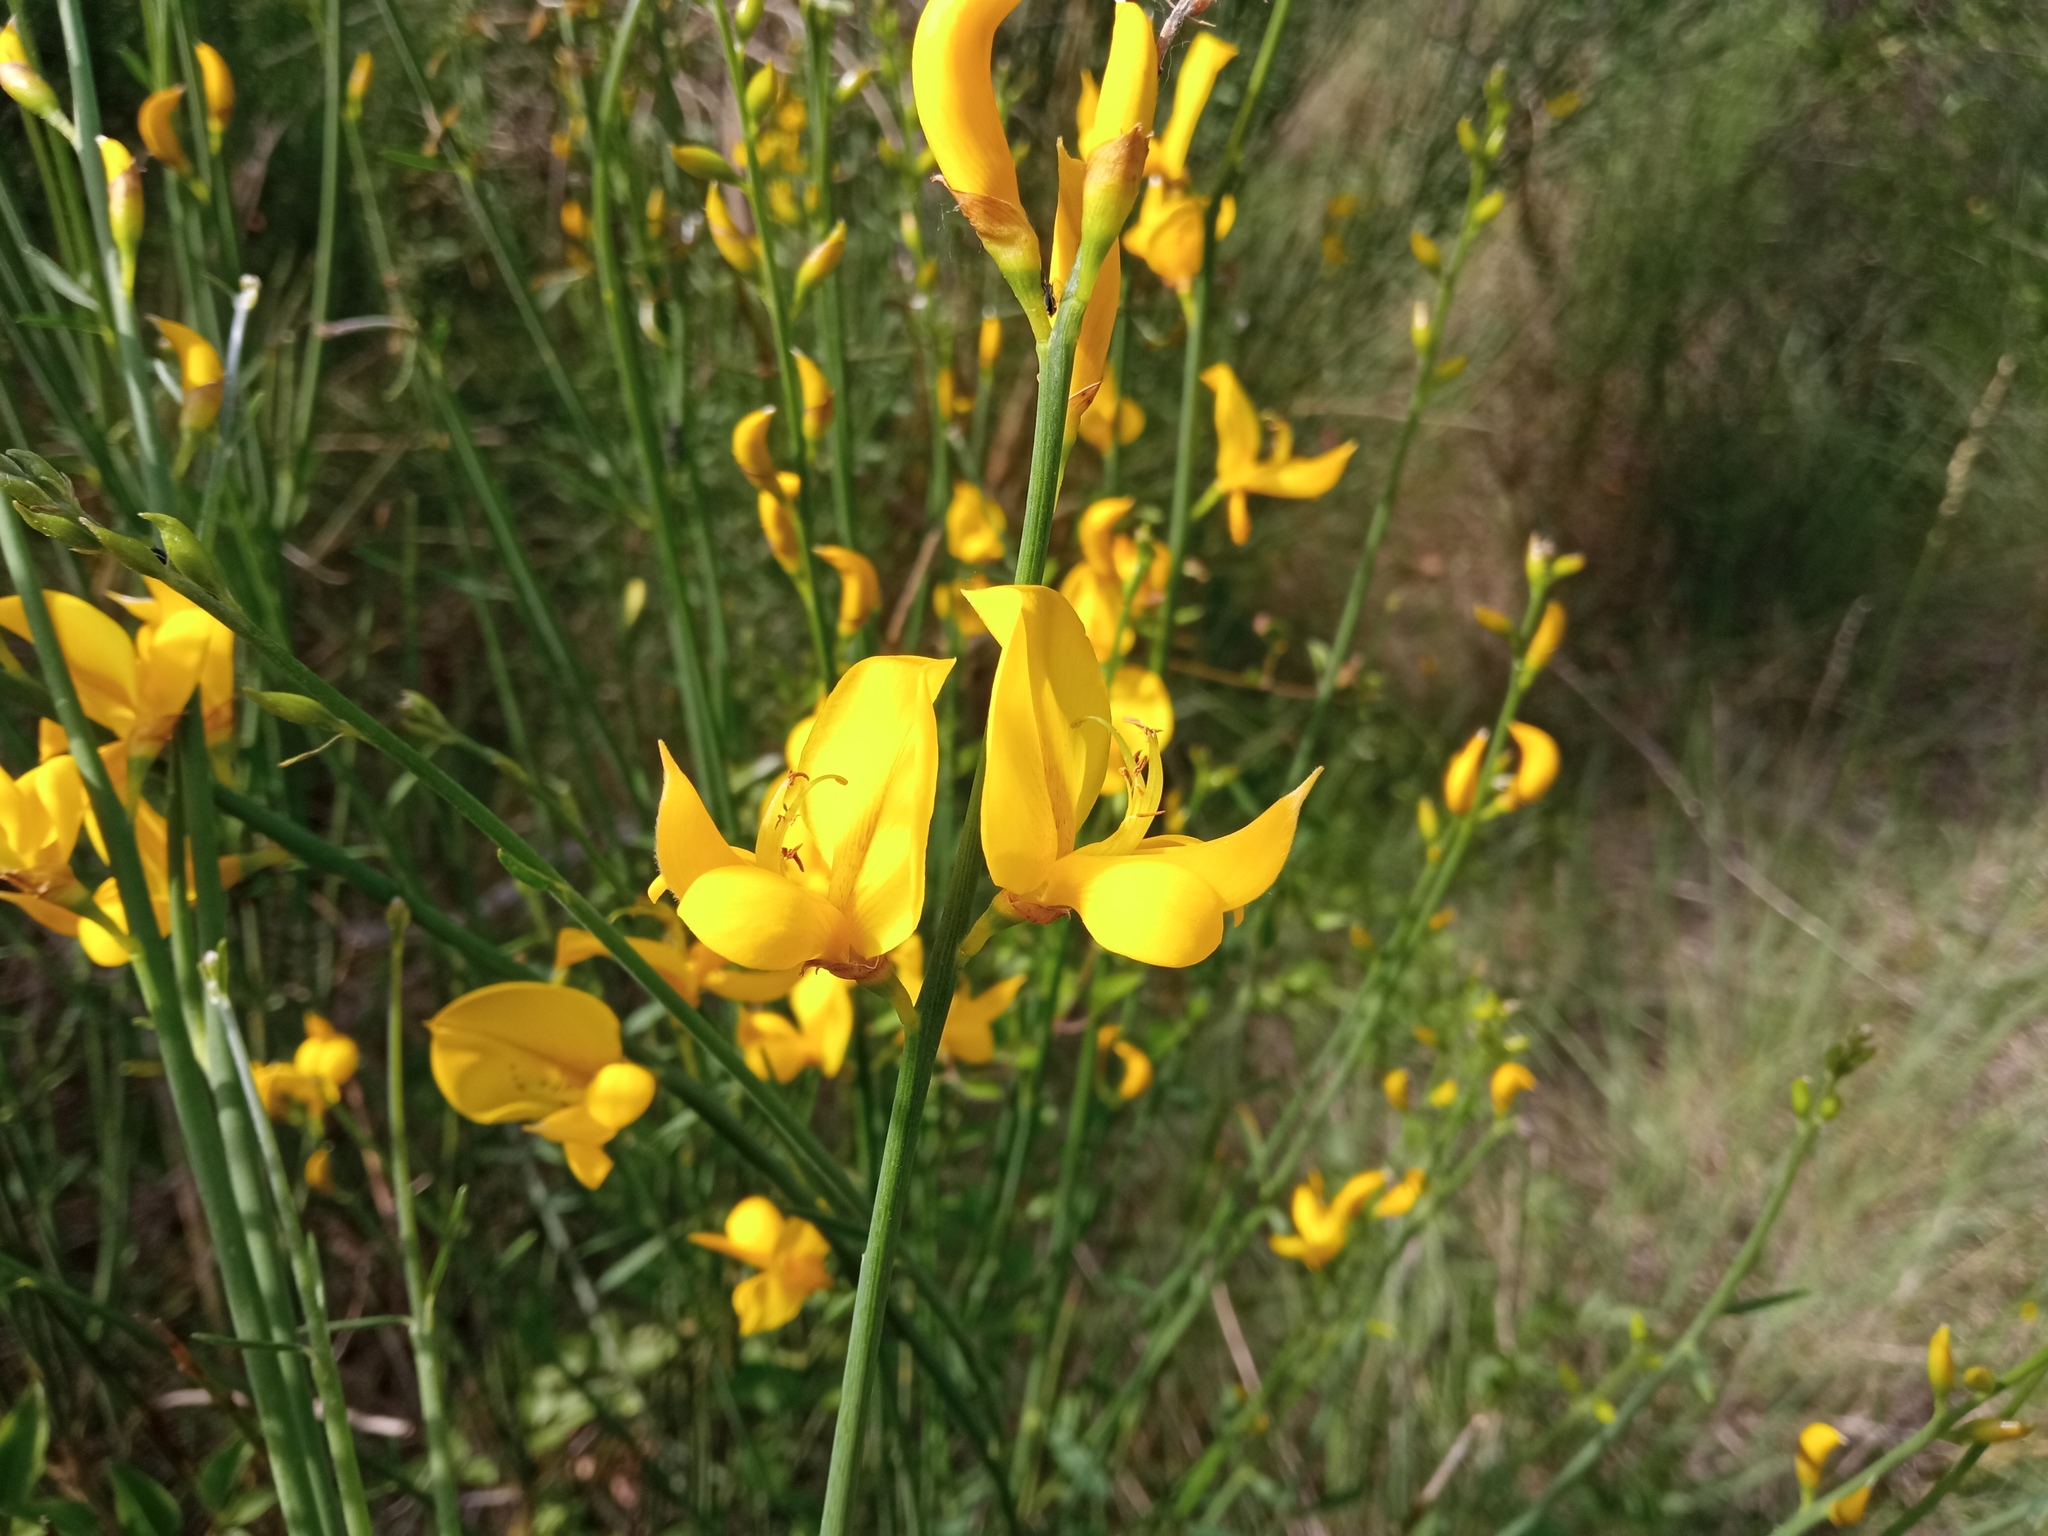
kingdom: Plantae
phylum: Tracheophyta
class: Magnoliopsida
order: Fabales
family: Fabaceae
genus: Spartium
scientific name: Spartium junceum
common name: Spanish broom
